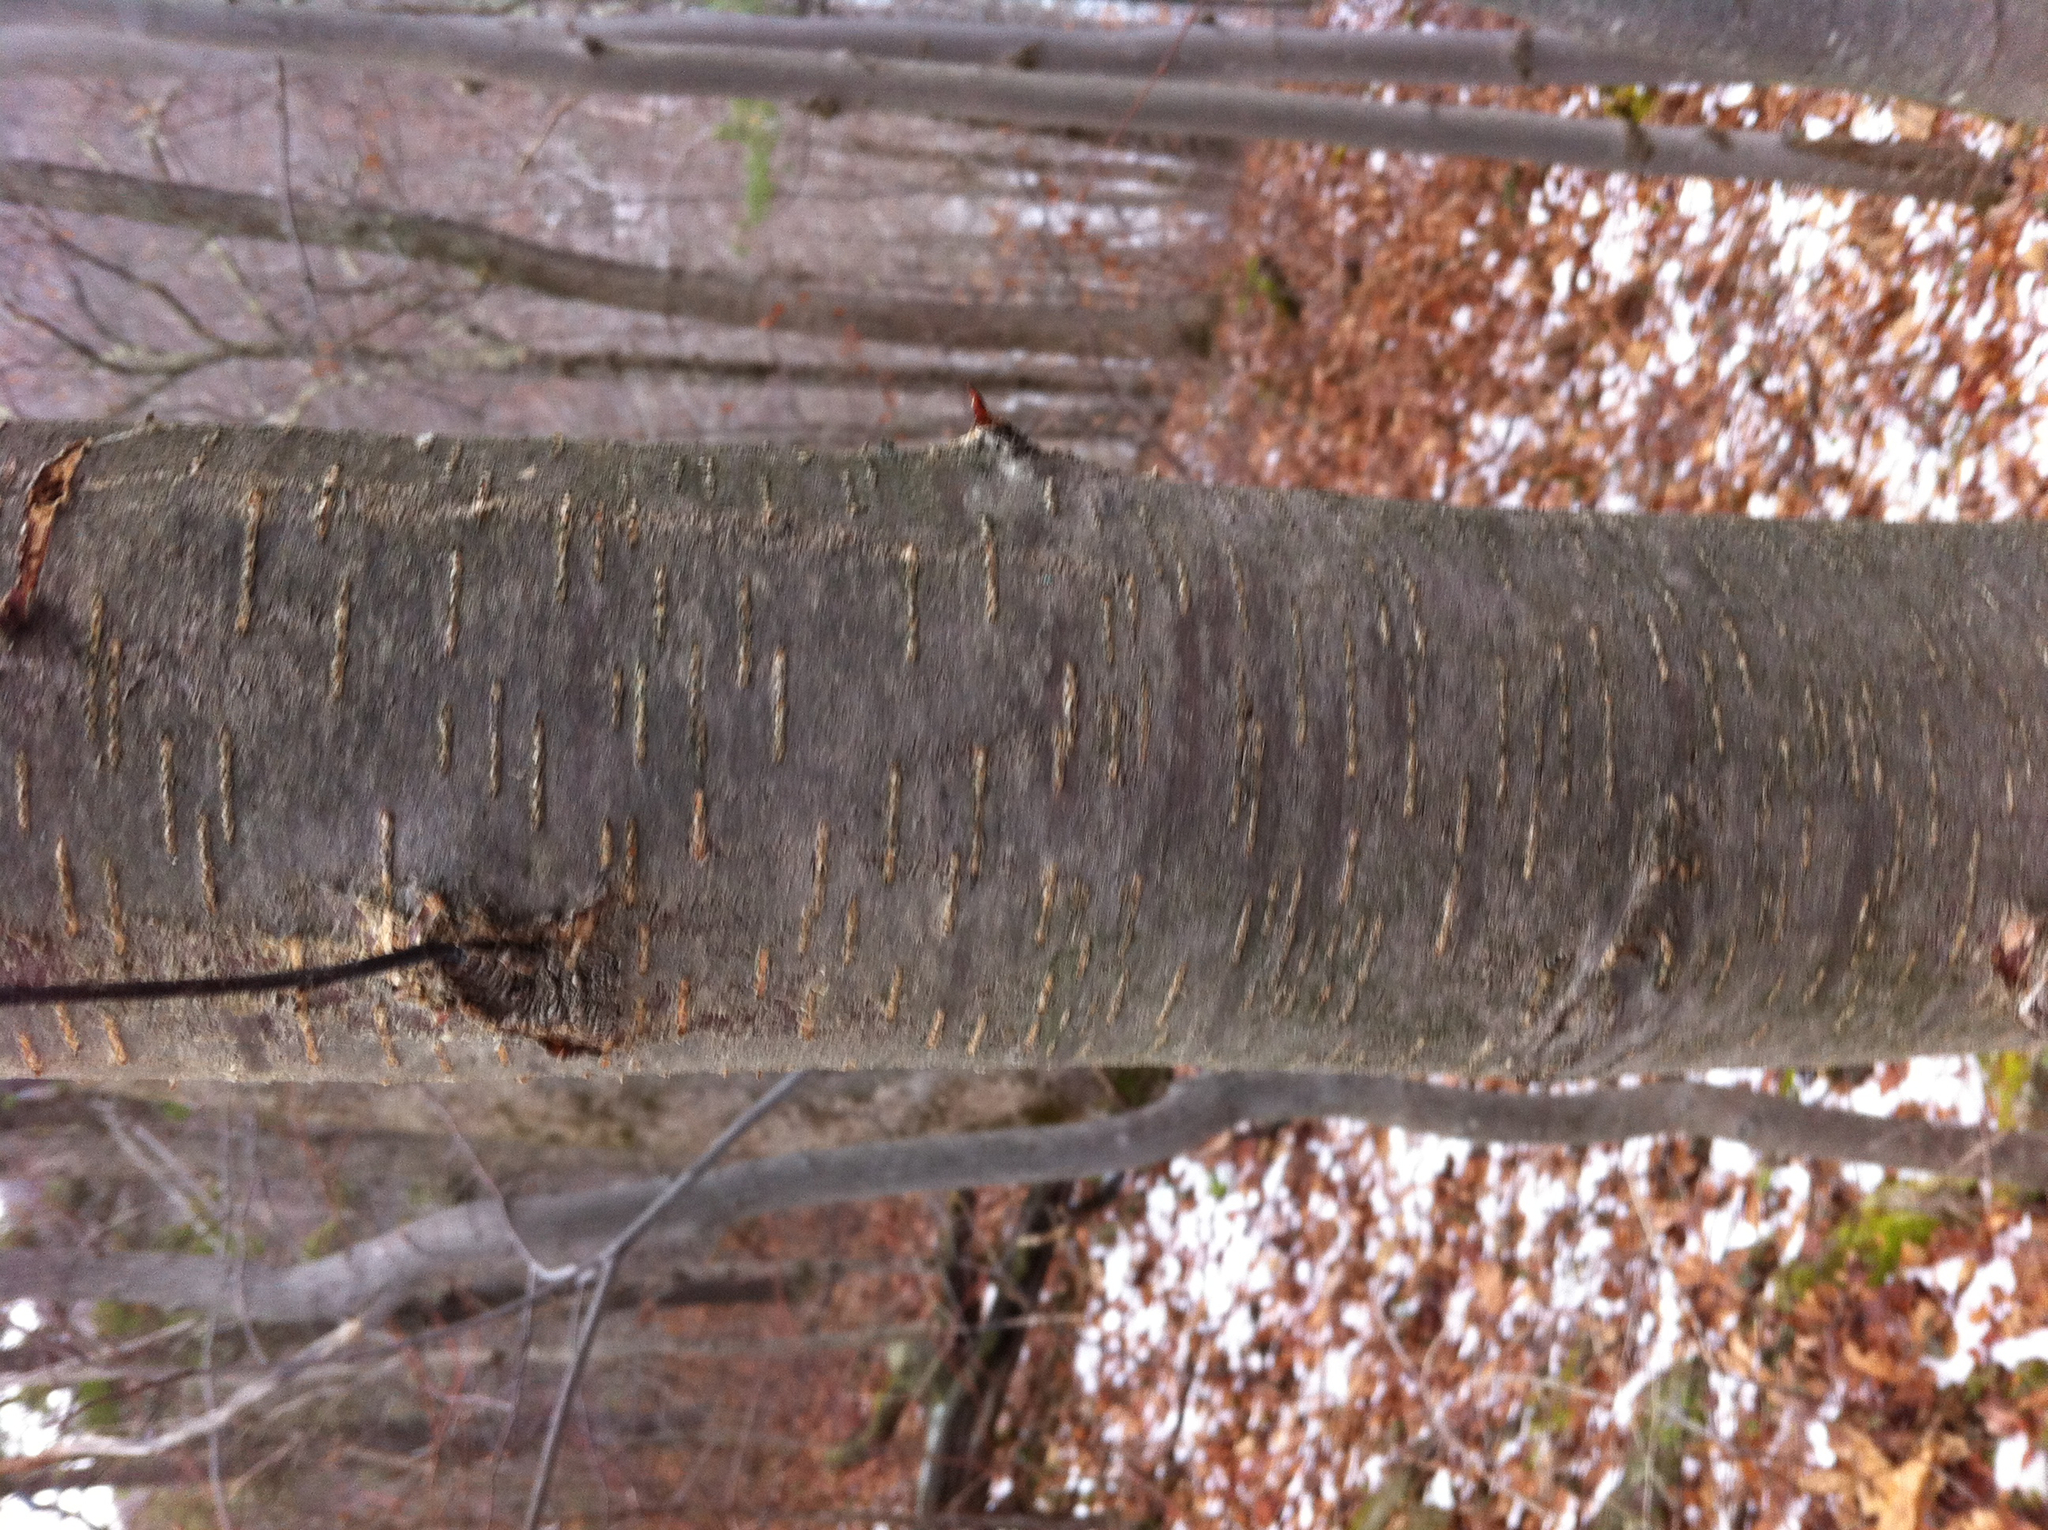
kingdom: Plantae
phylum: Tracheophyta
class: Magnoliopsida
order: Fagales
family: Betulaceae
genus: Betula
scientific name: Betula lenta
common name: Black birch
